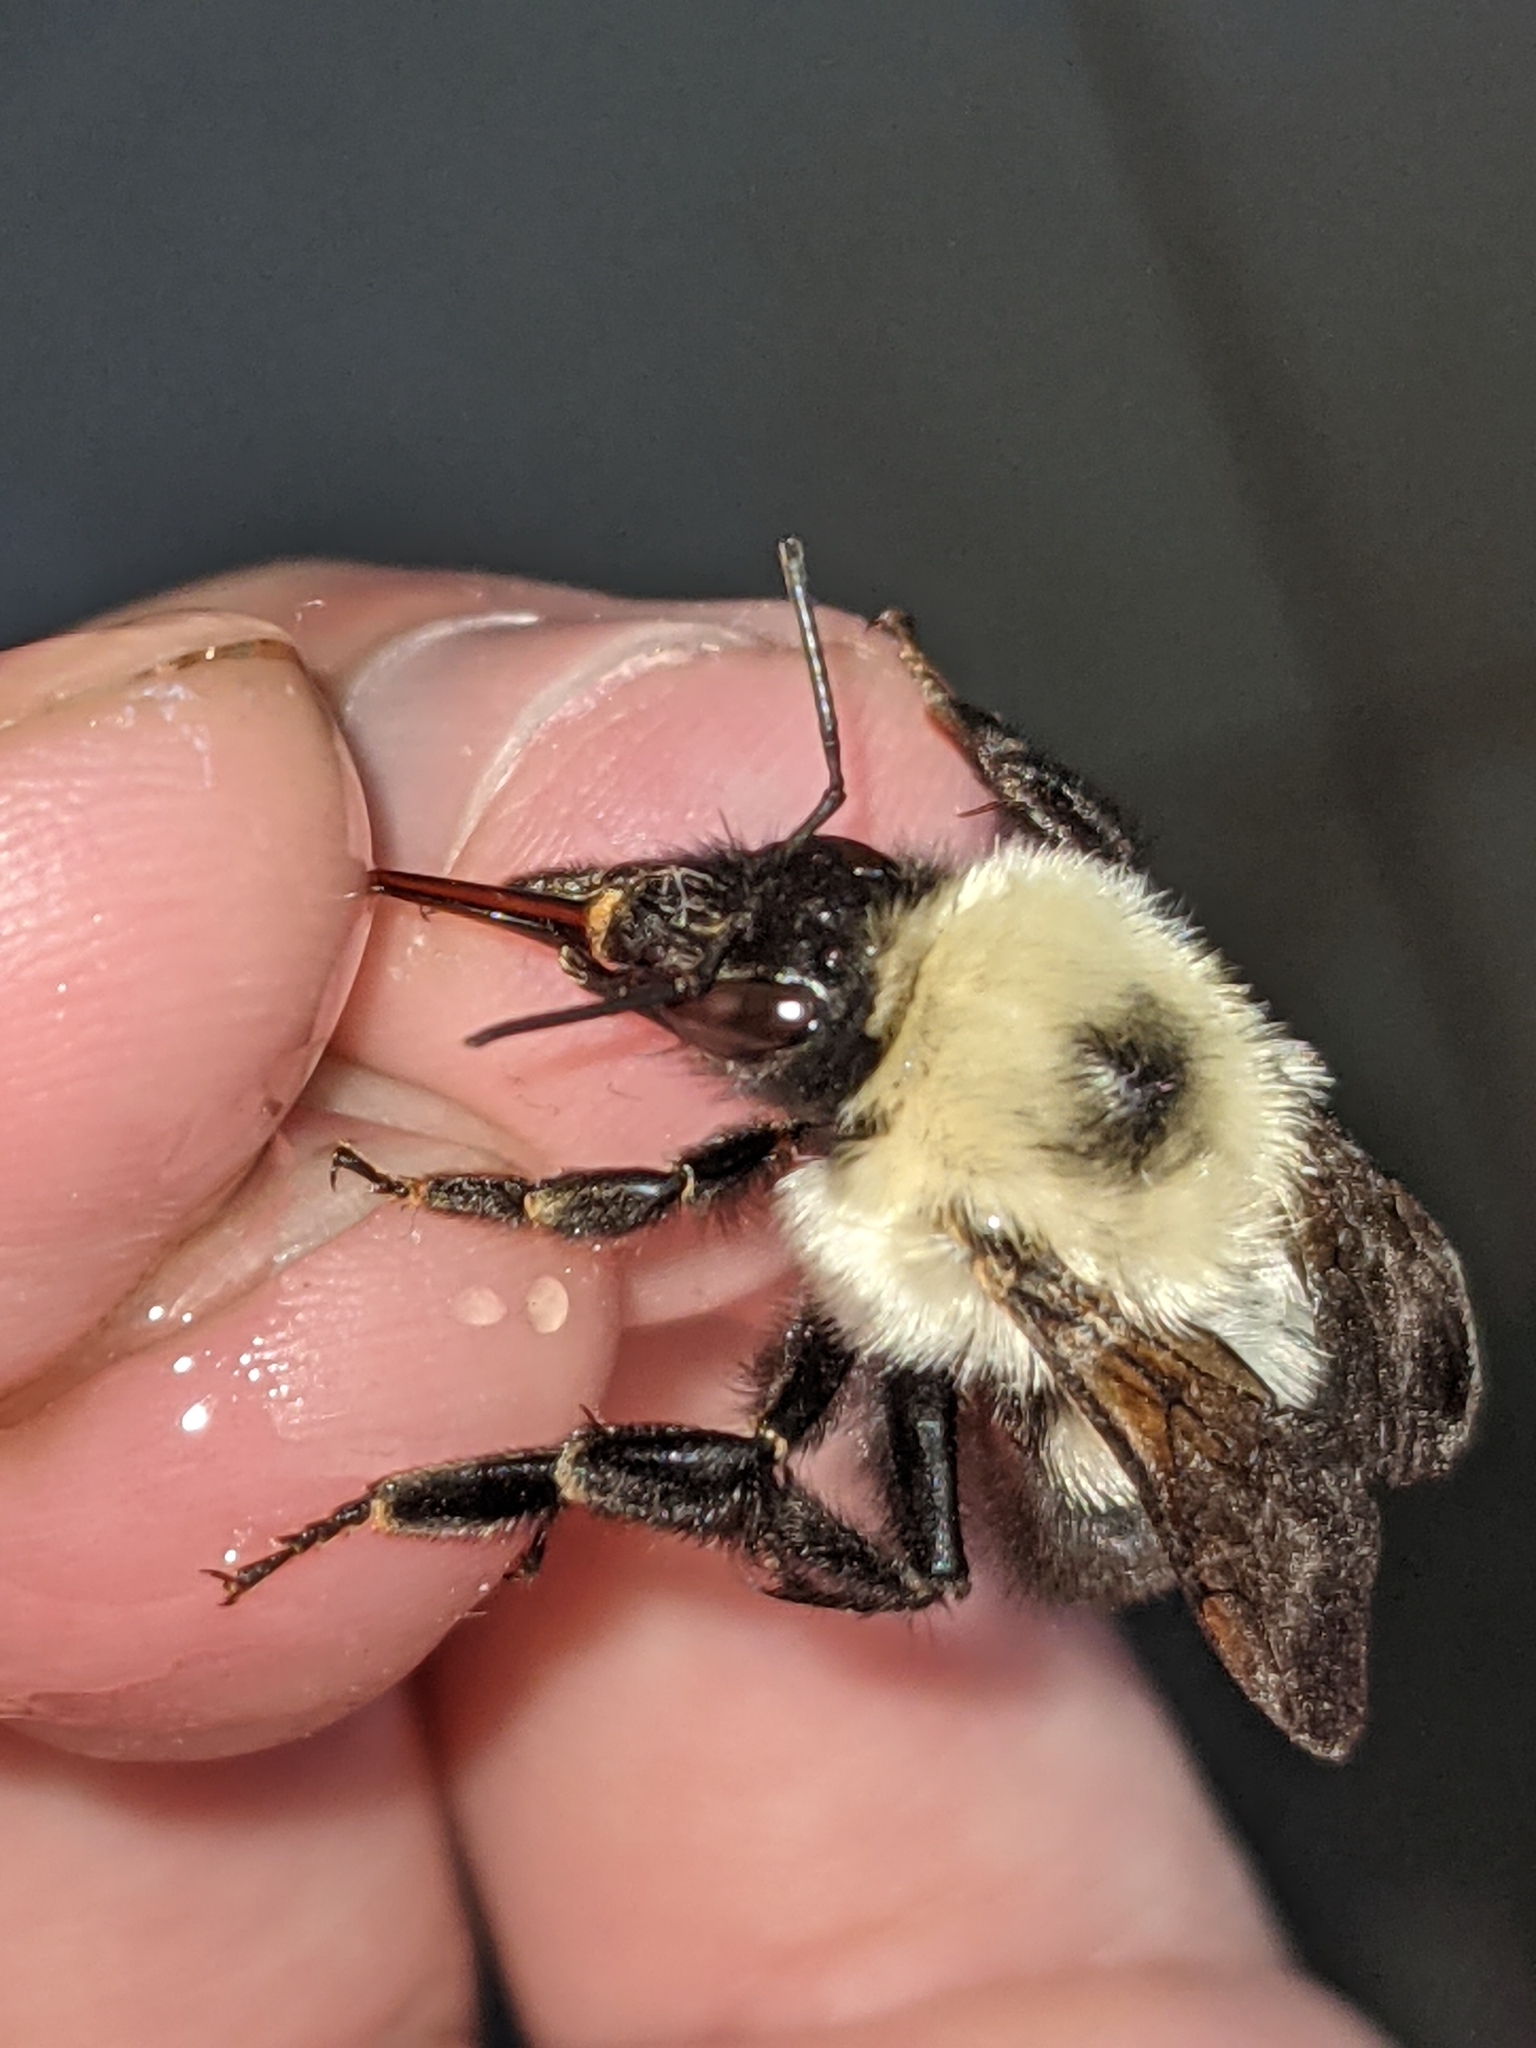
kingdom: Animalia
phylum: Arthropoda
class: Insecta
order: Hymenoptera
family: Apidae
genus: Bombus
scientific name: Bombus bimaculatus
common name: Two-spotted bumble bee
